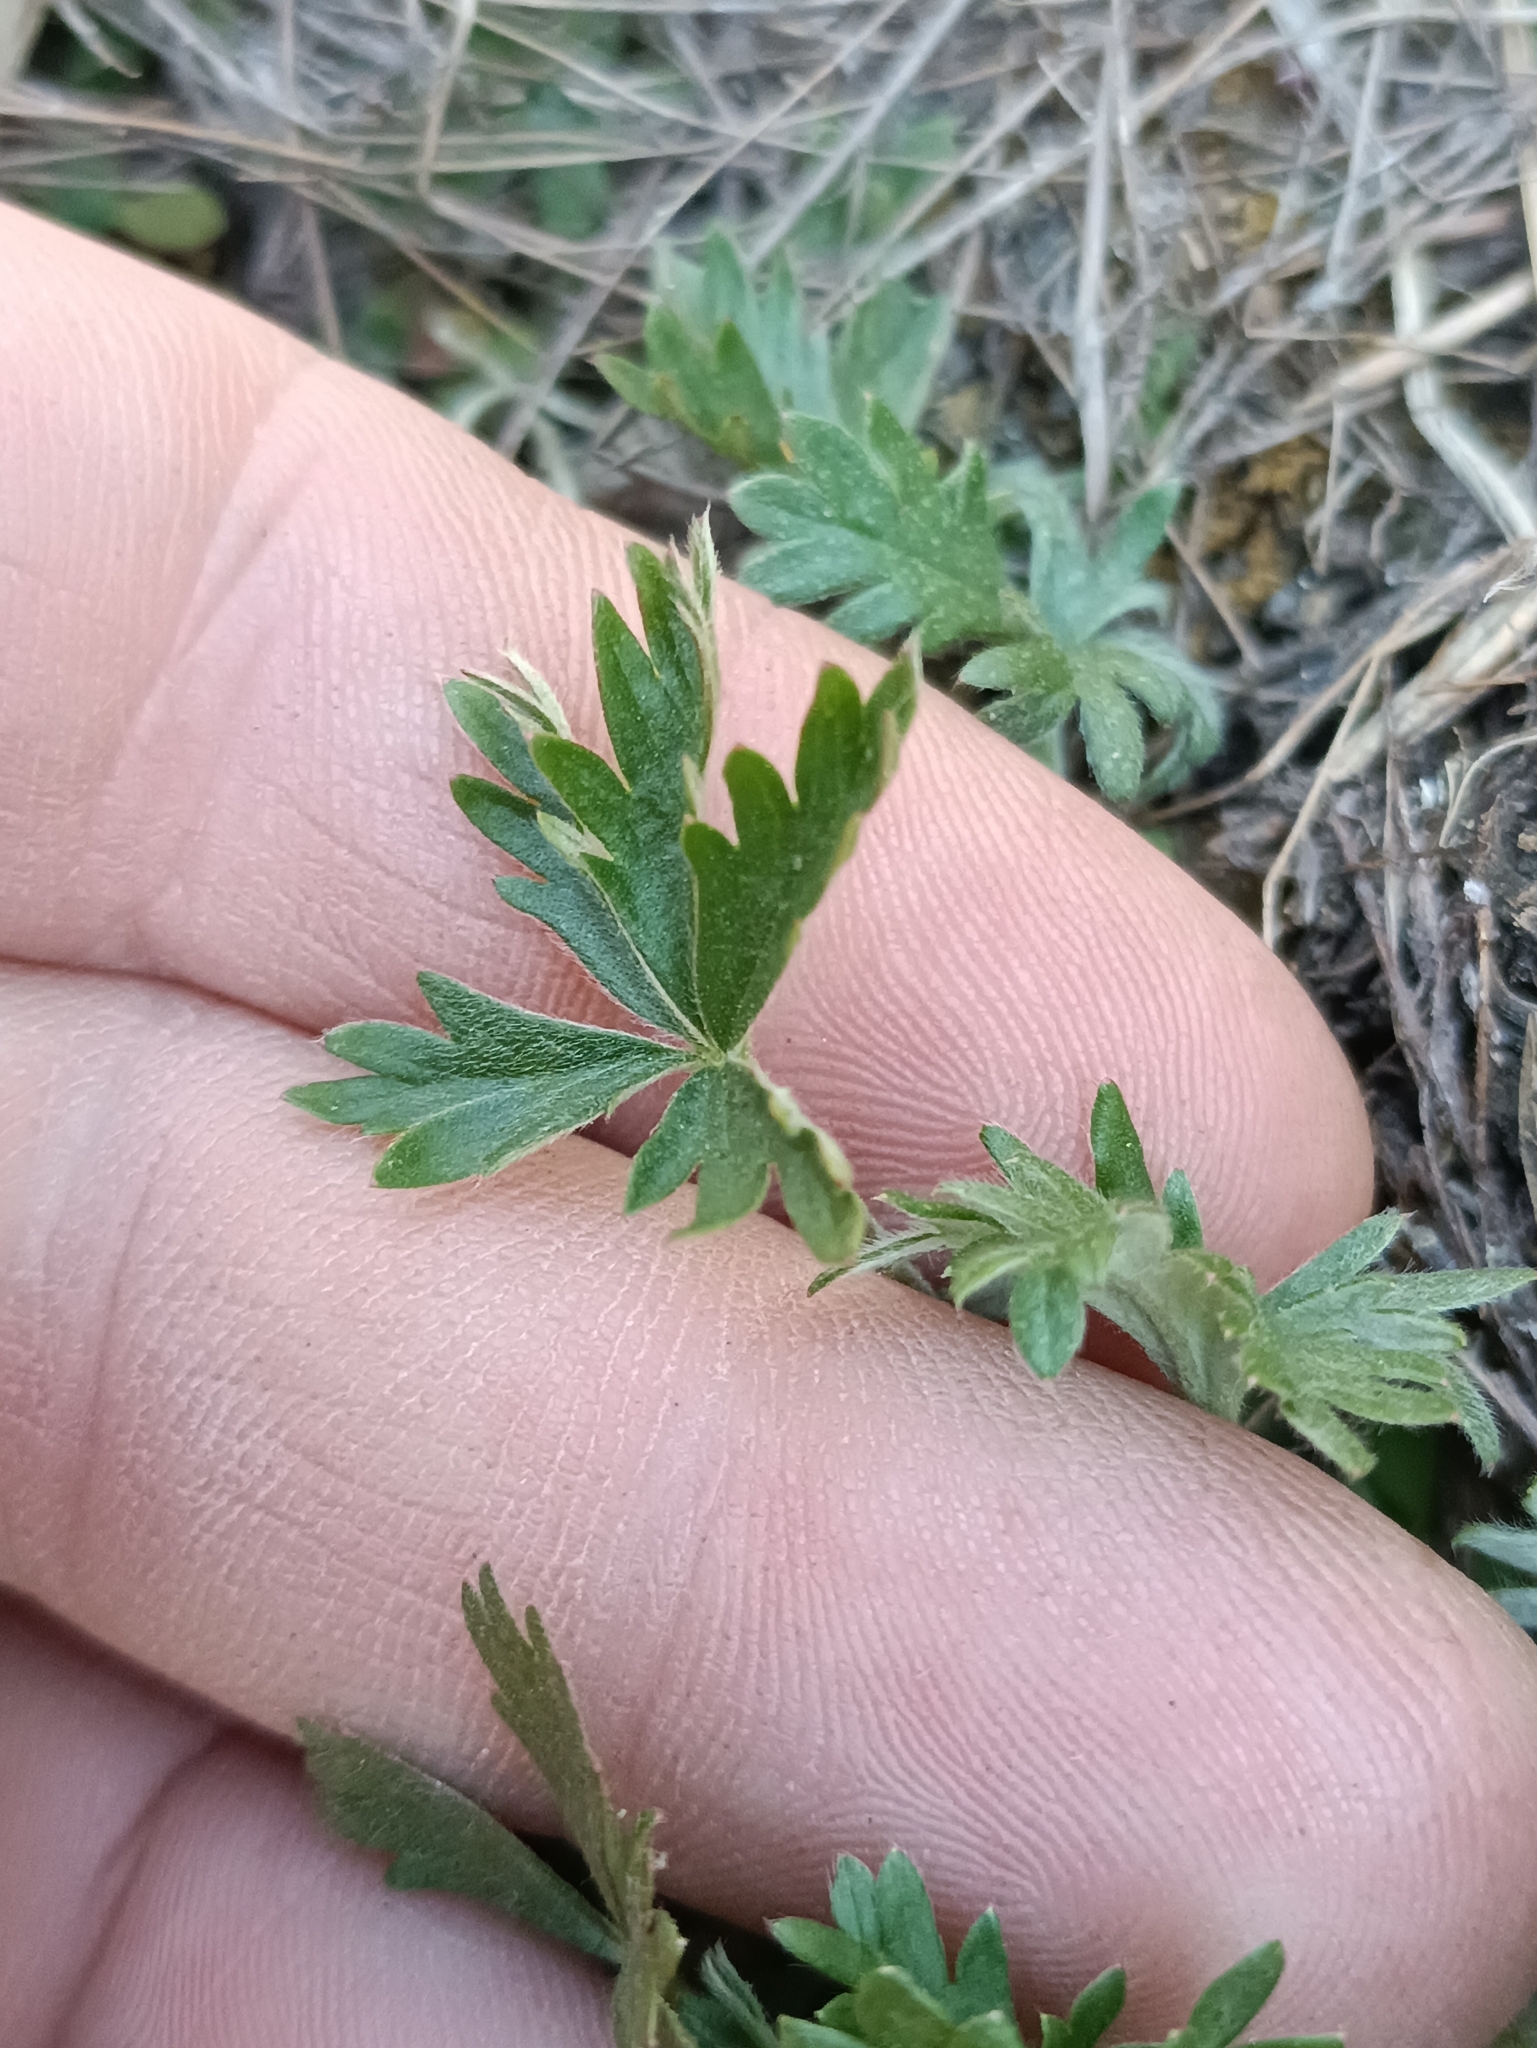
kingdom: Plantae
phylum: Tracheophyta
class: Magnoliopsida
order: Rosales
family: Rosaceae
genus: Potentilla
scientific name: Potentilla argentea
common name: Hoary cinquefoil
